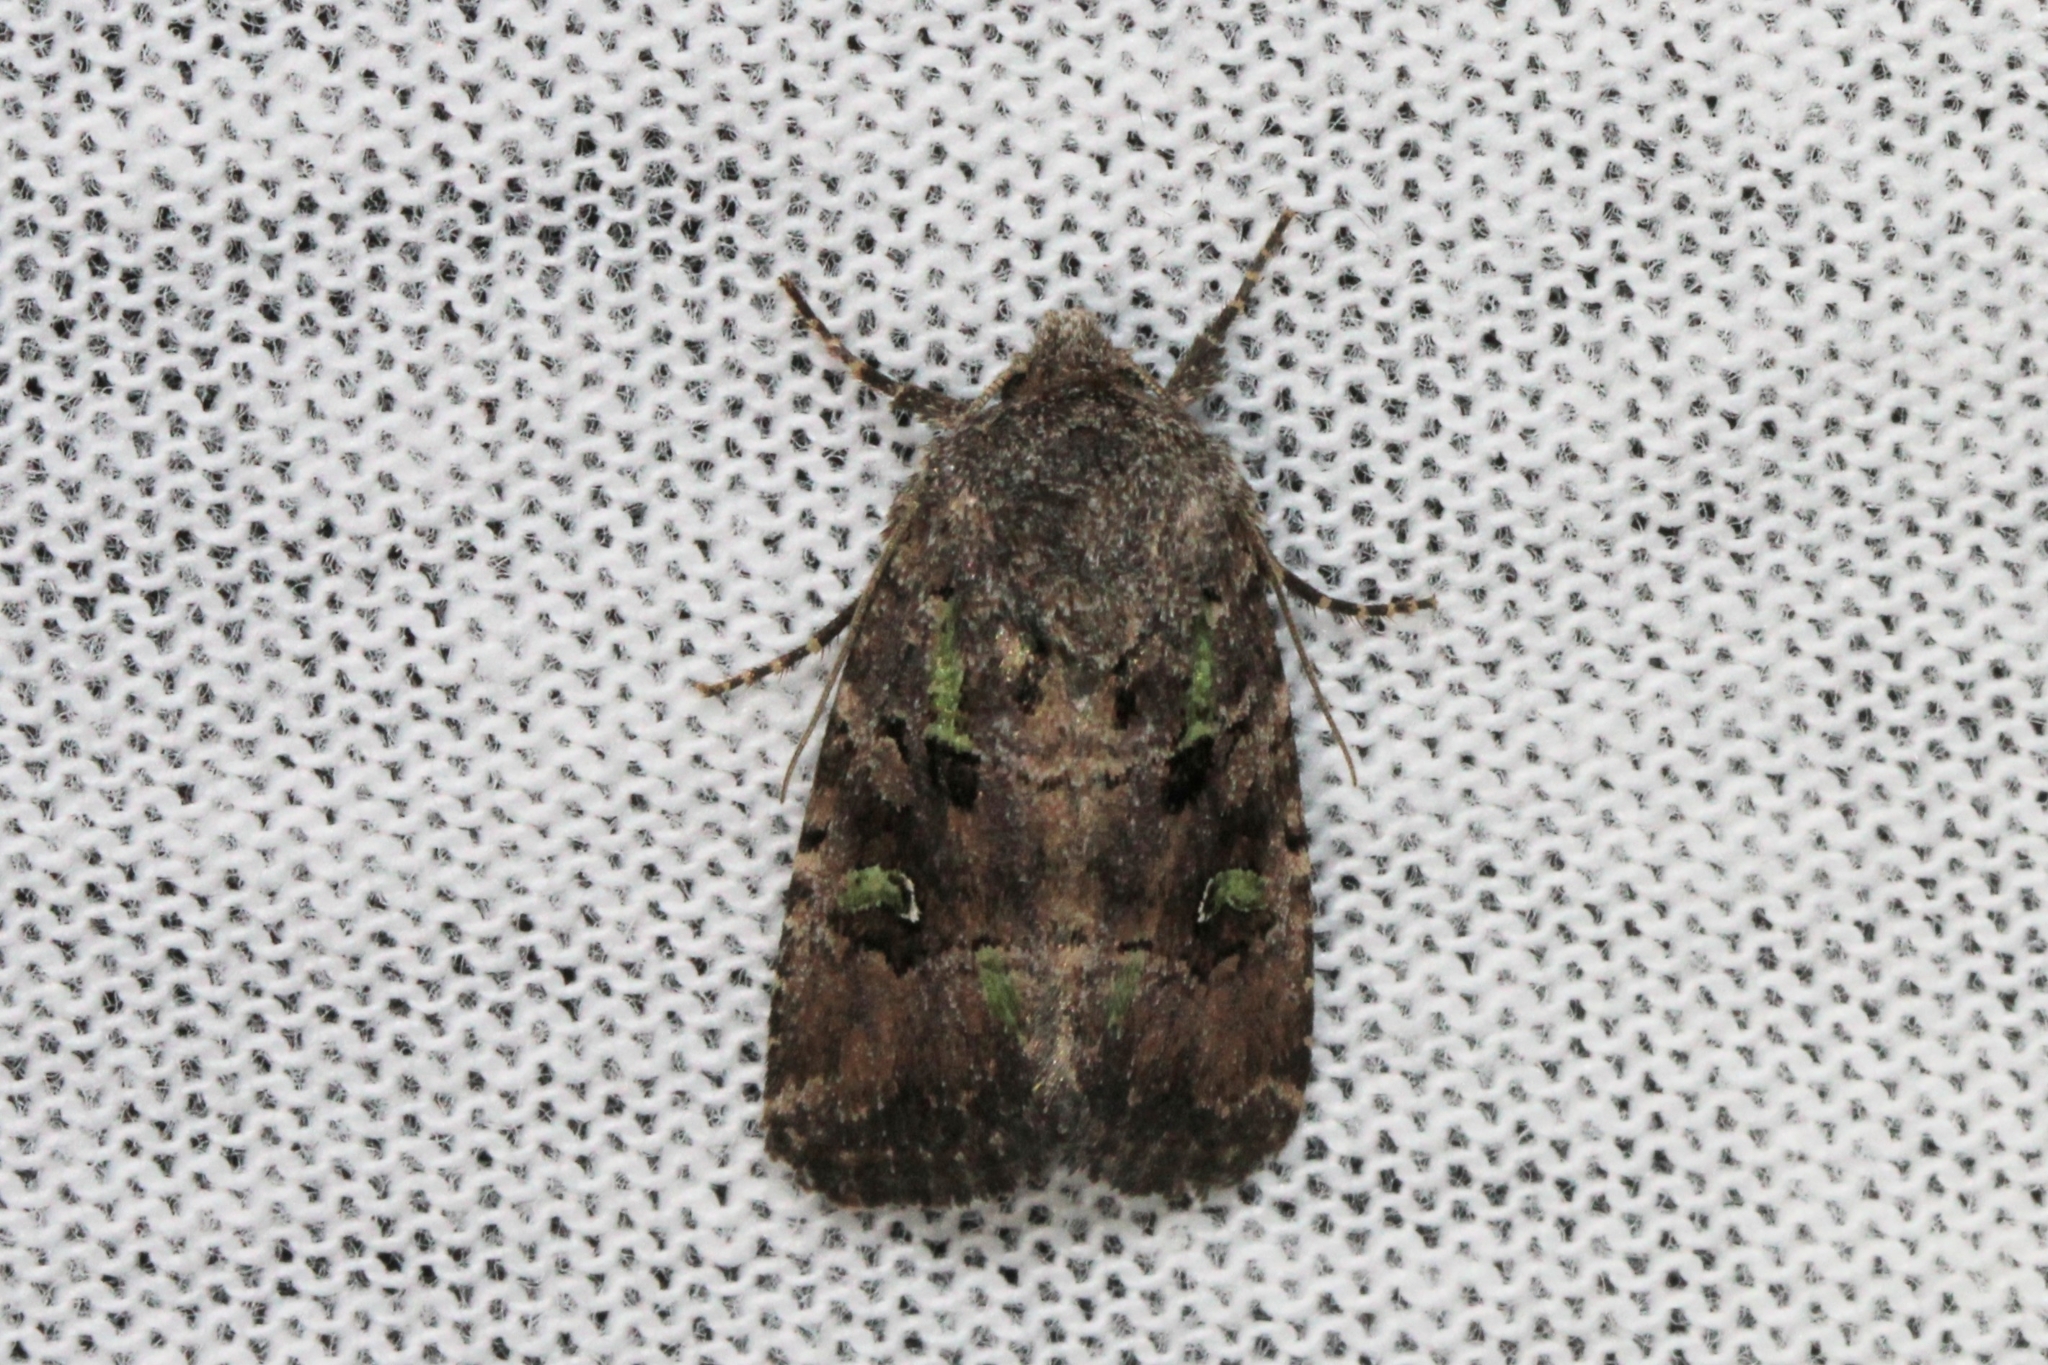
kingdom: Animalia
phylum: Arthropoda
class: Insecta
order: Lepidoptera
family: Noctuidae
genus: Lacinipolia
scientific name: Lacinipolia renigera
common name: Kidney-spotted minor
